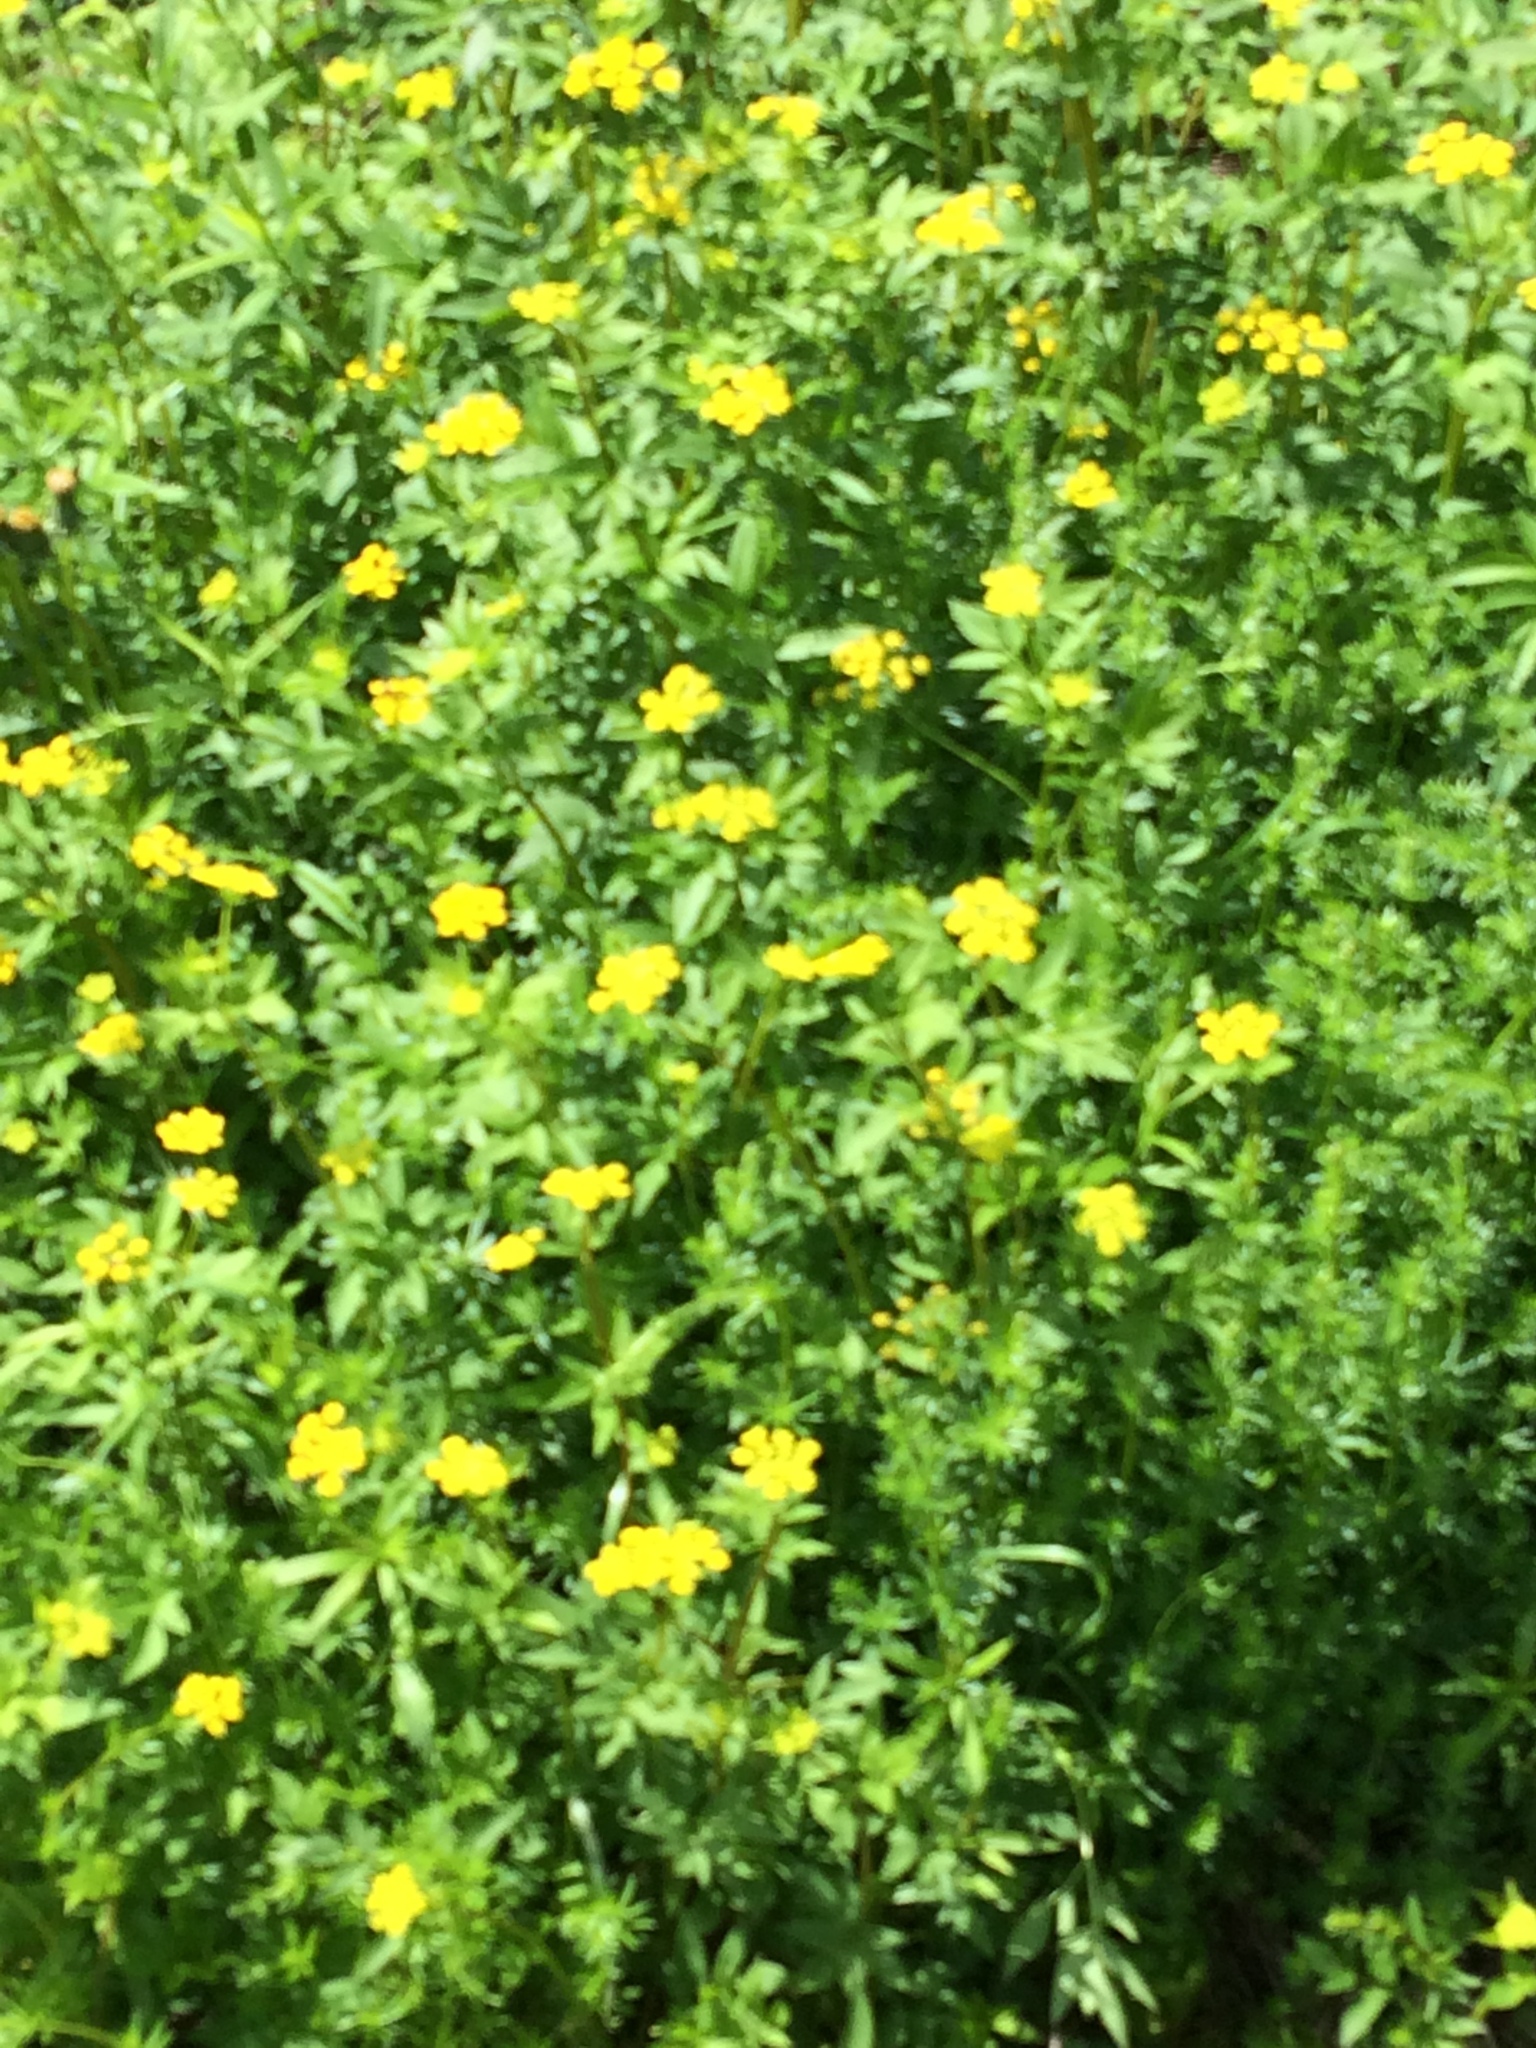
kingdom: Plantae
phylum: Tracheophyta
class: Magnoliopsida
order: Apiales
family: Apiaceae
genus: Zizia
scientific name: Zizia aurea
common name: Golden alexanders
